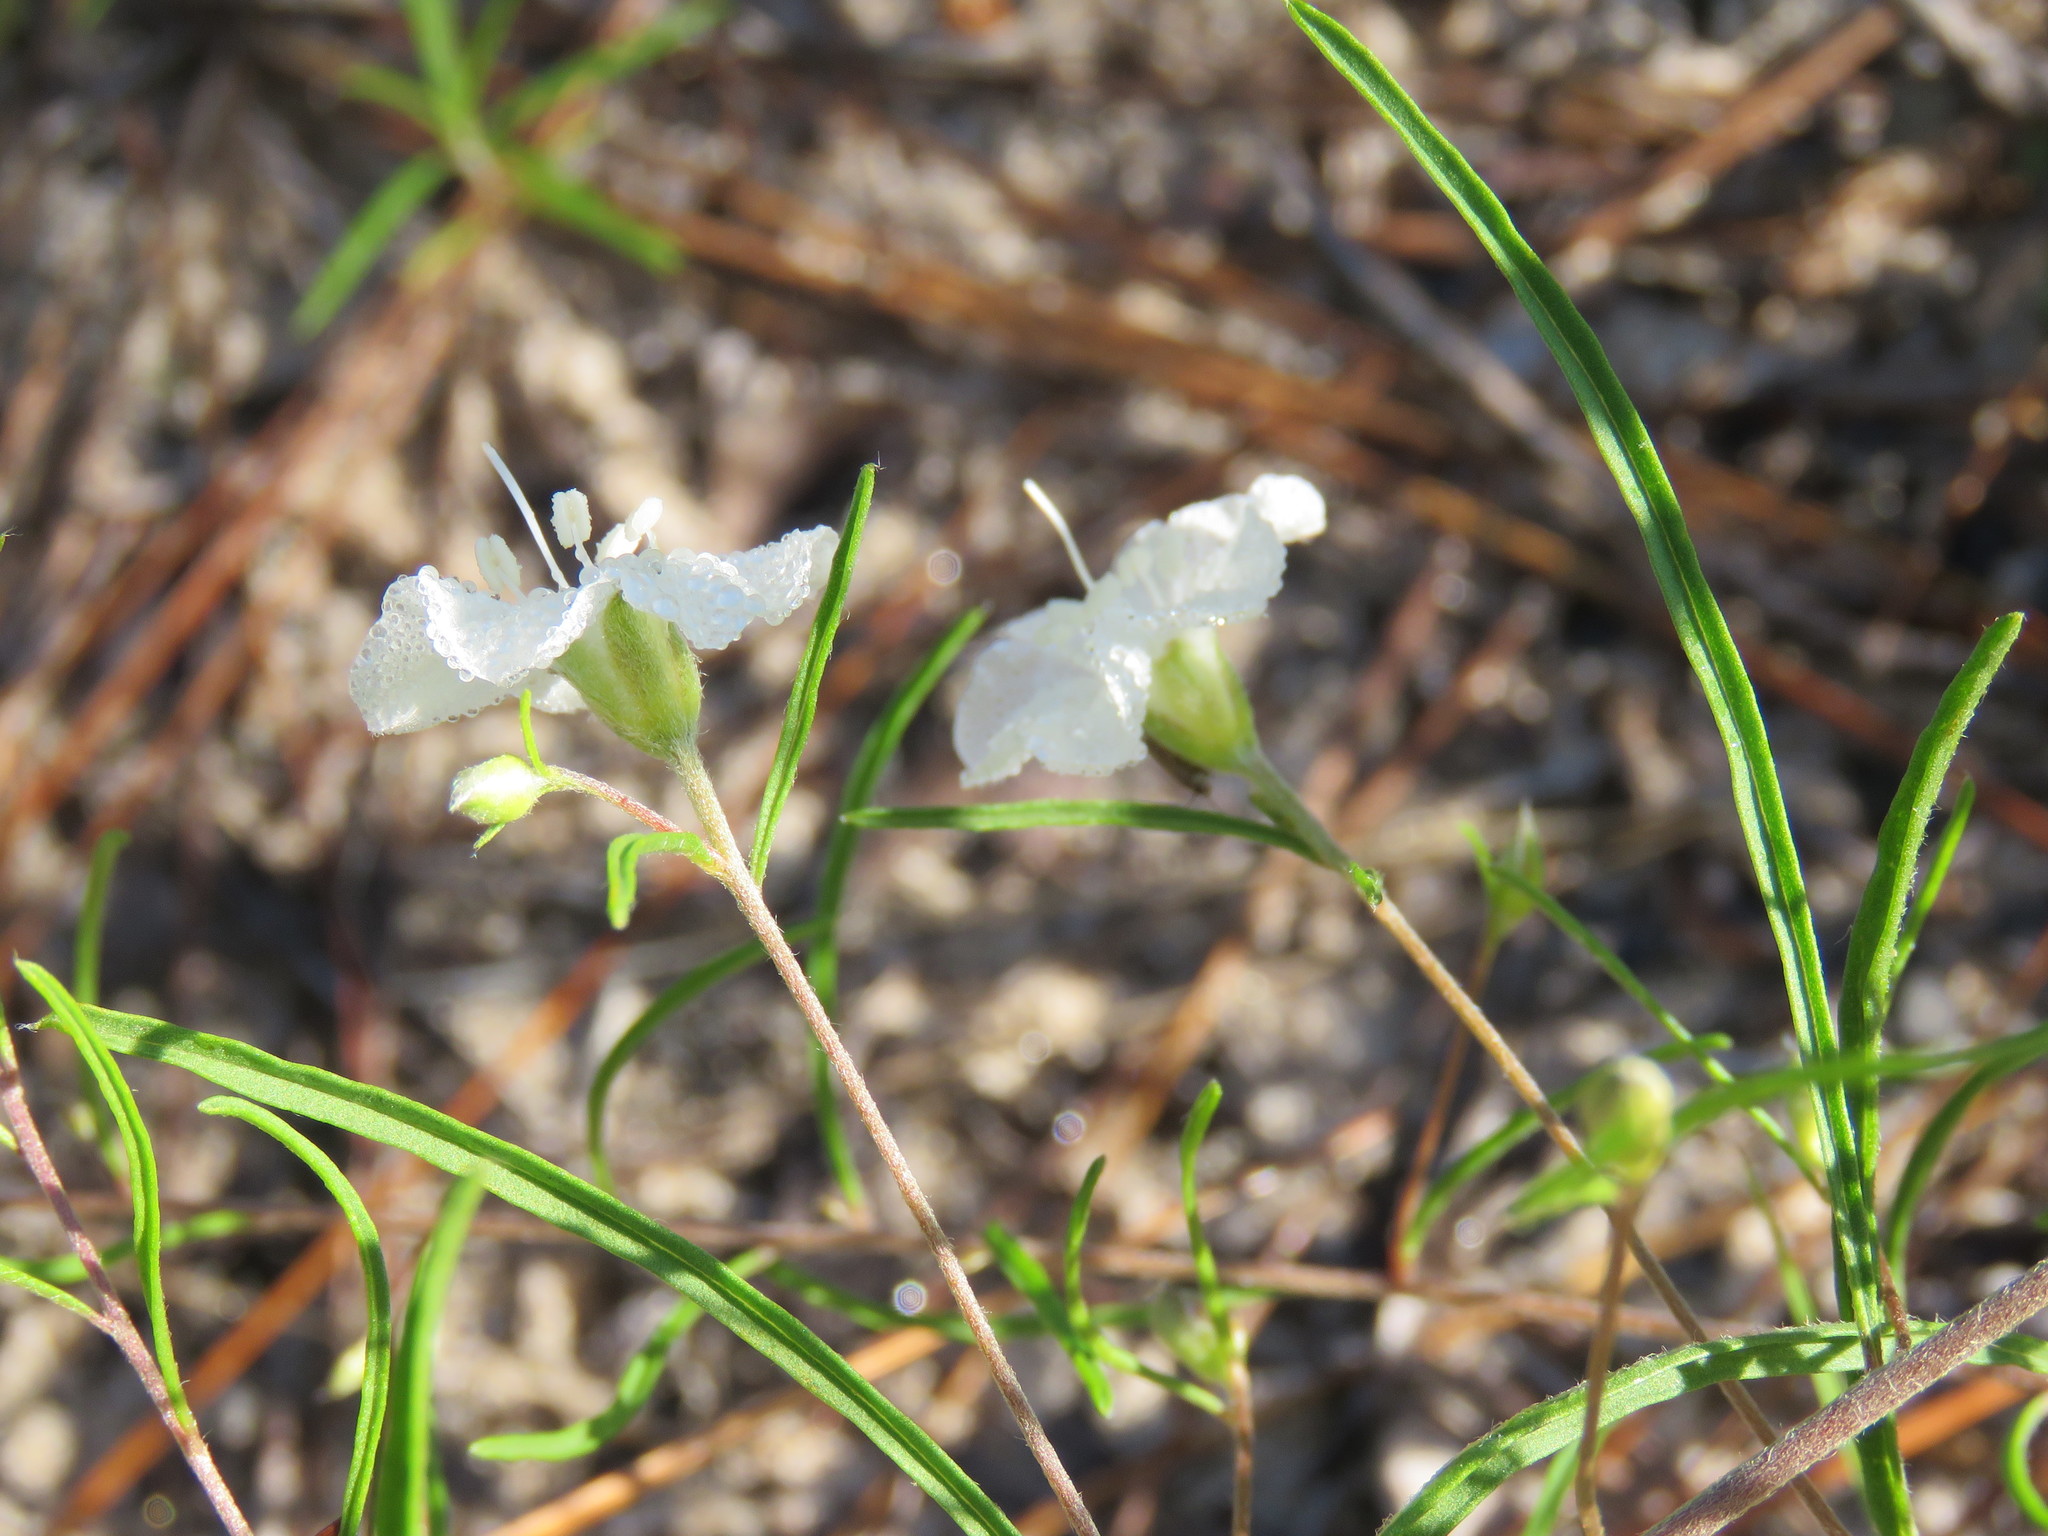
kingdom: Plantae
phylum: Tracheophyta
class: Magnoliopsida
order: Solanales
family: Convolvulaceae
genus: Stylisma
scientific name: Stylisma pickeringii
